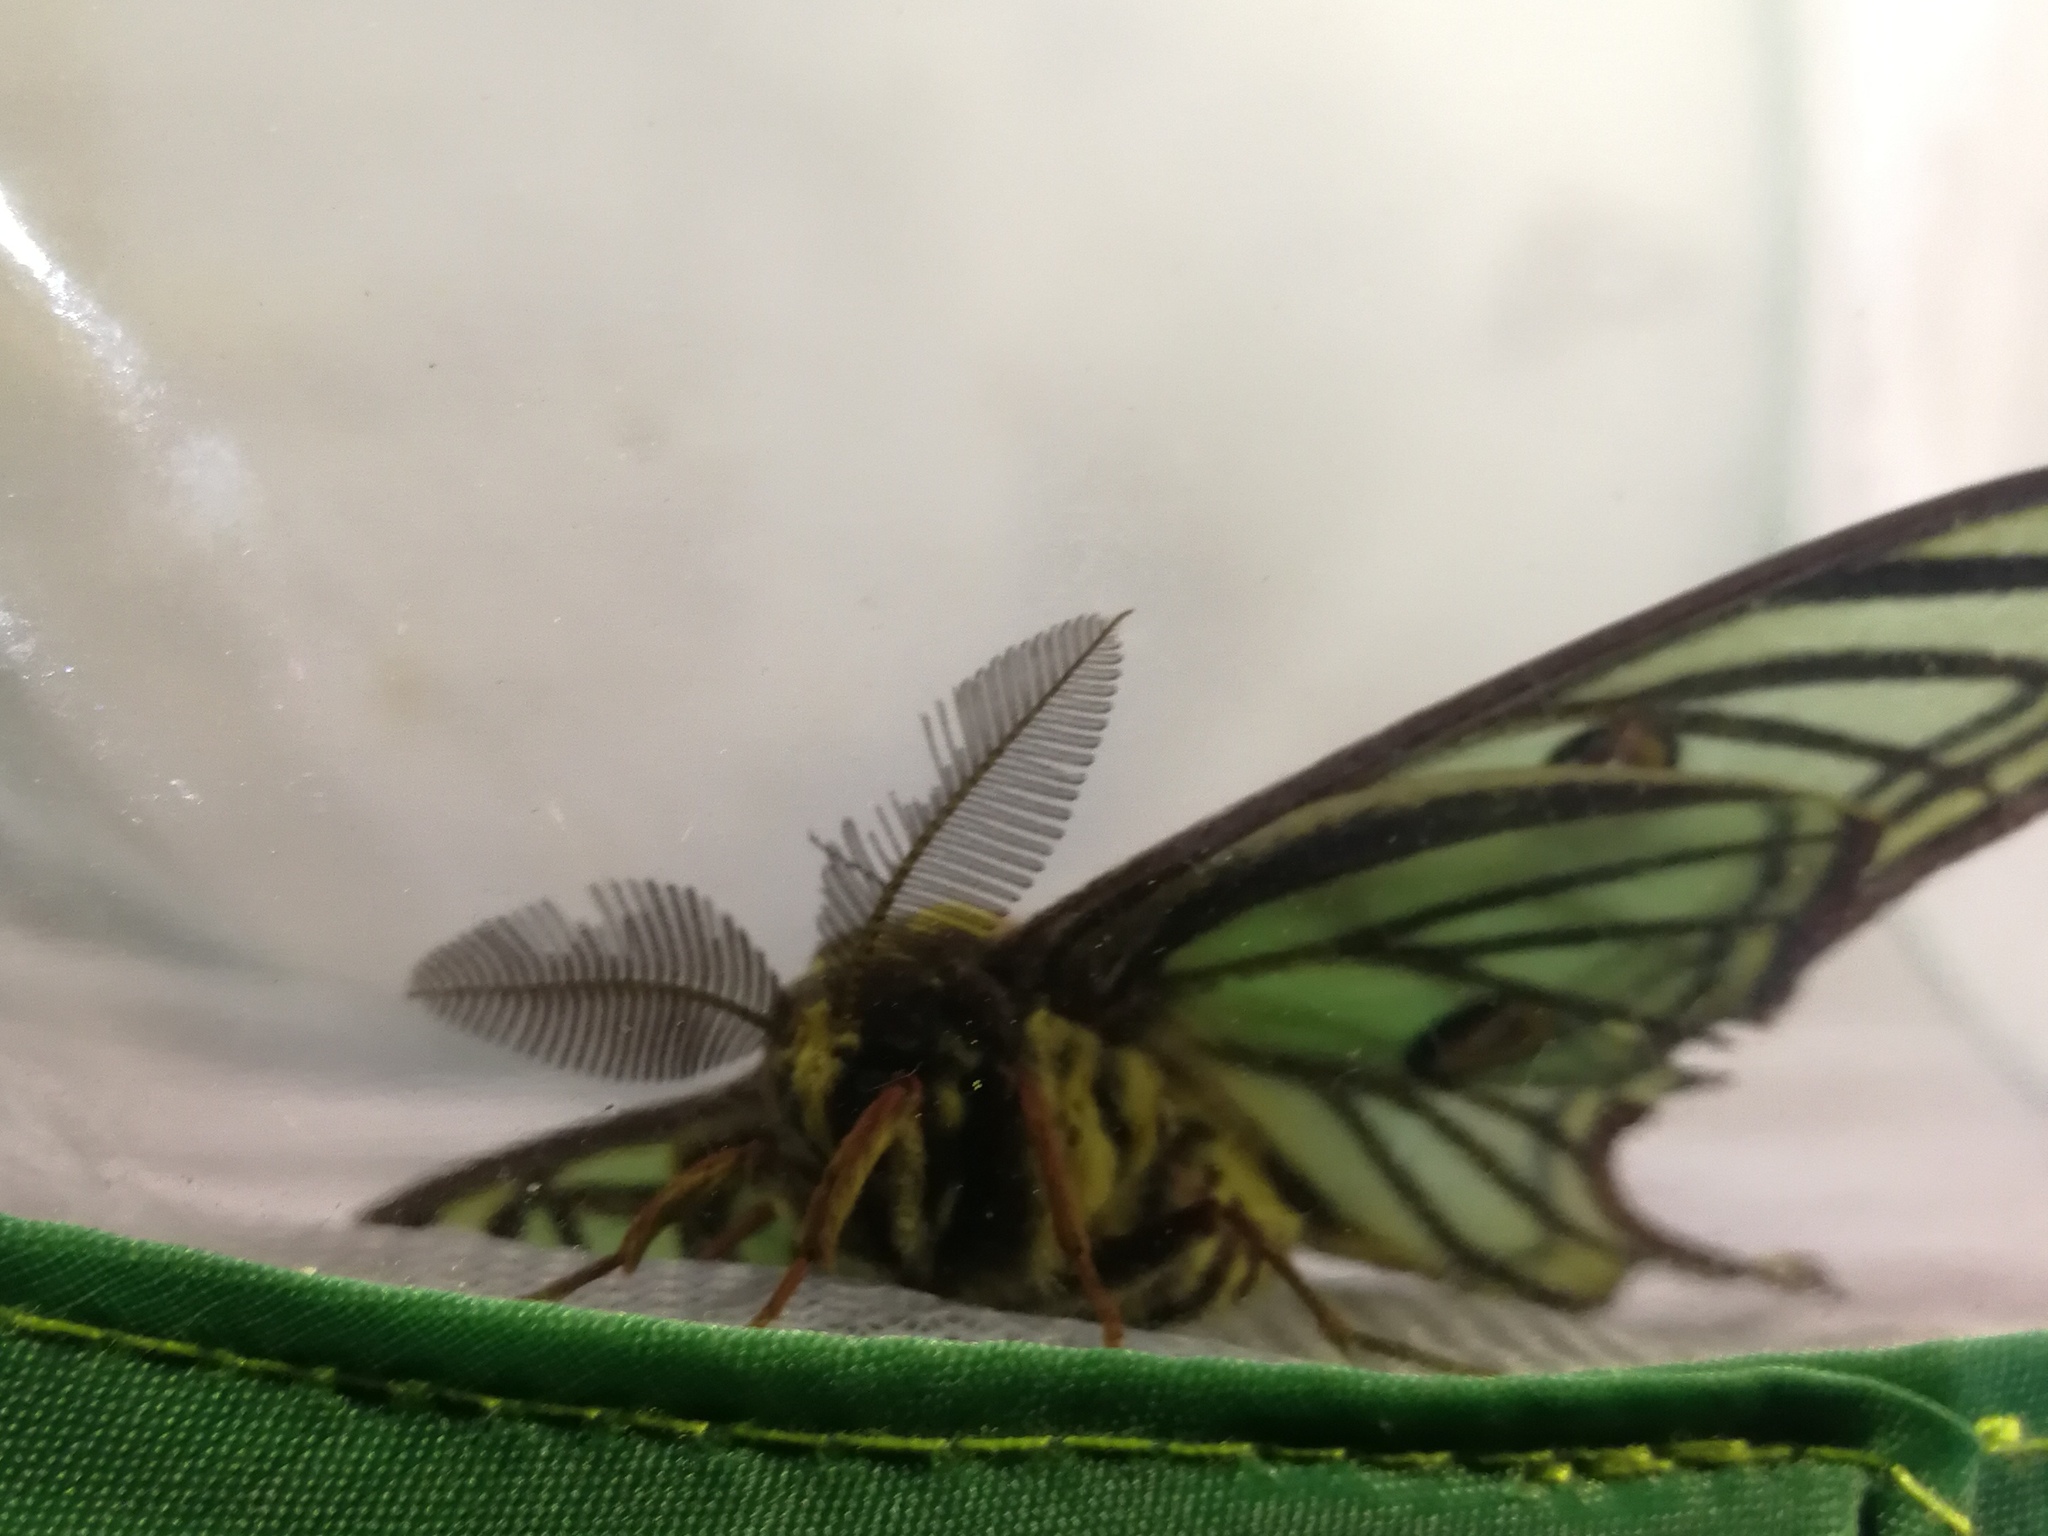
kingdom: Animalia
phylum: Arthropoda
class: Insecta
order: Lepidoptera
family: Saturniidae
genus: Graellsia
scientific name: Graellsia isabellae
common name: Spanish moon moth
